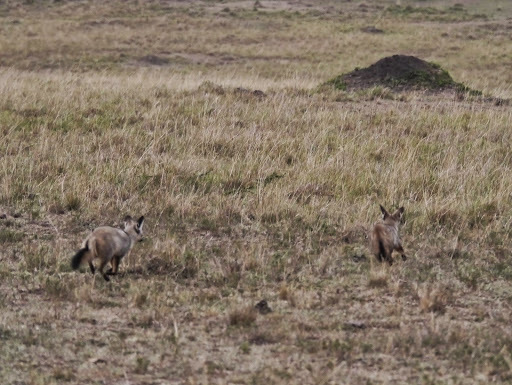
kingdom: Animalia
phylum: Chordata
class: Mammalia
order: Carnivora
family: Canidae
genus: Otocyon
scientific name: Otocyon megalotis
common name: Bat-eared fox
